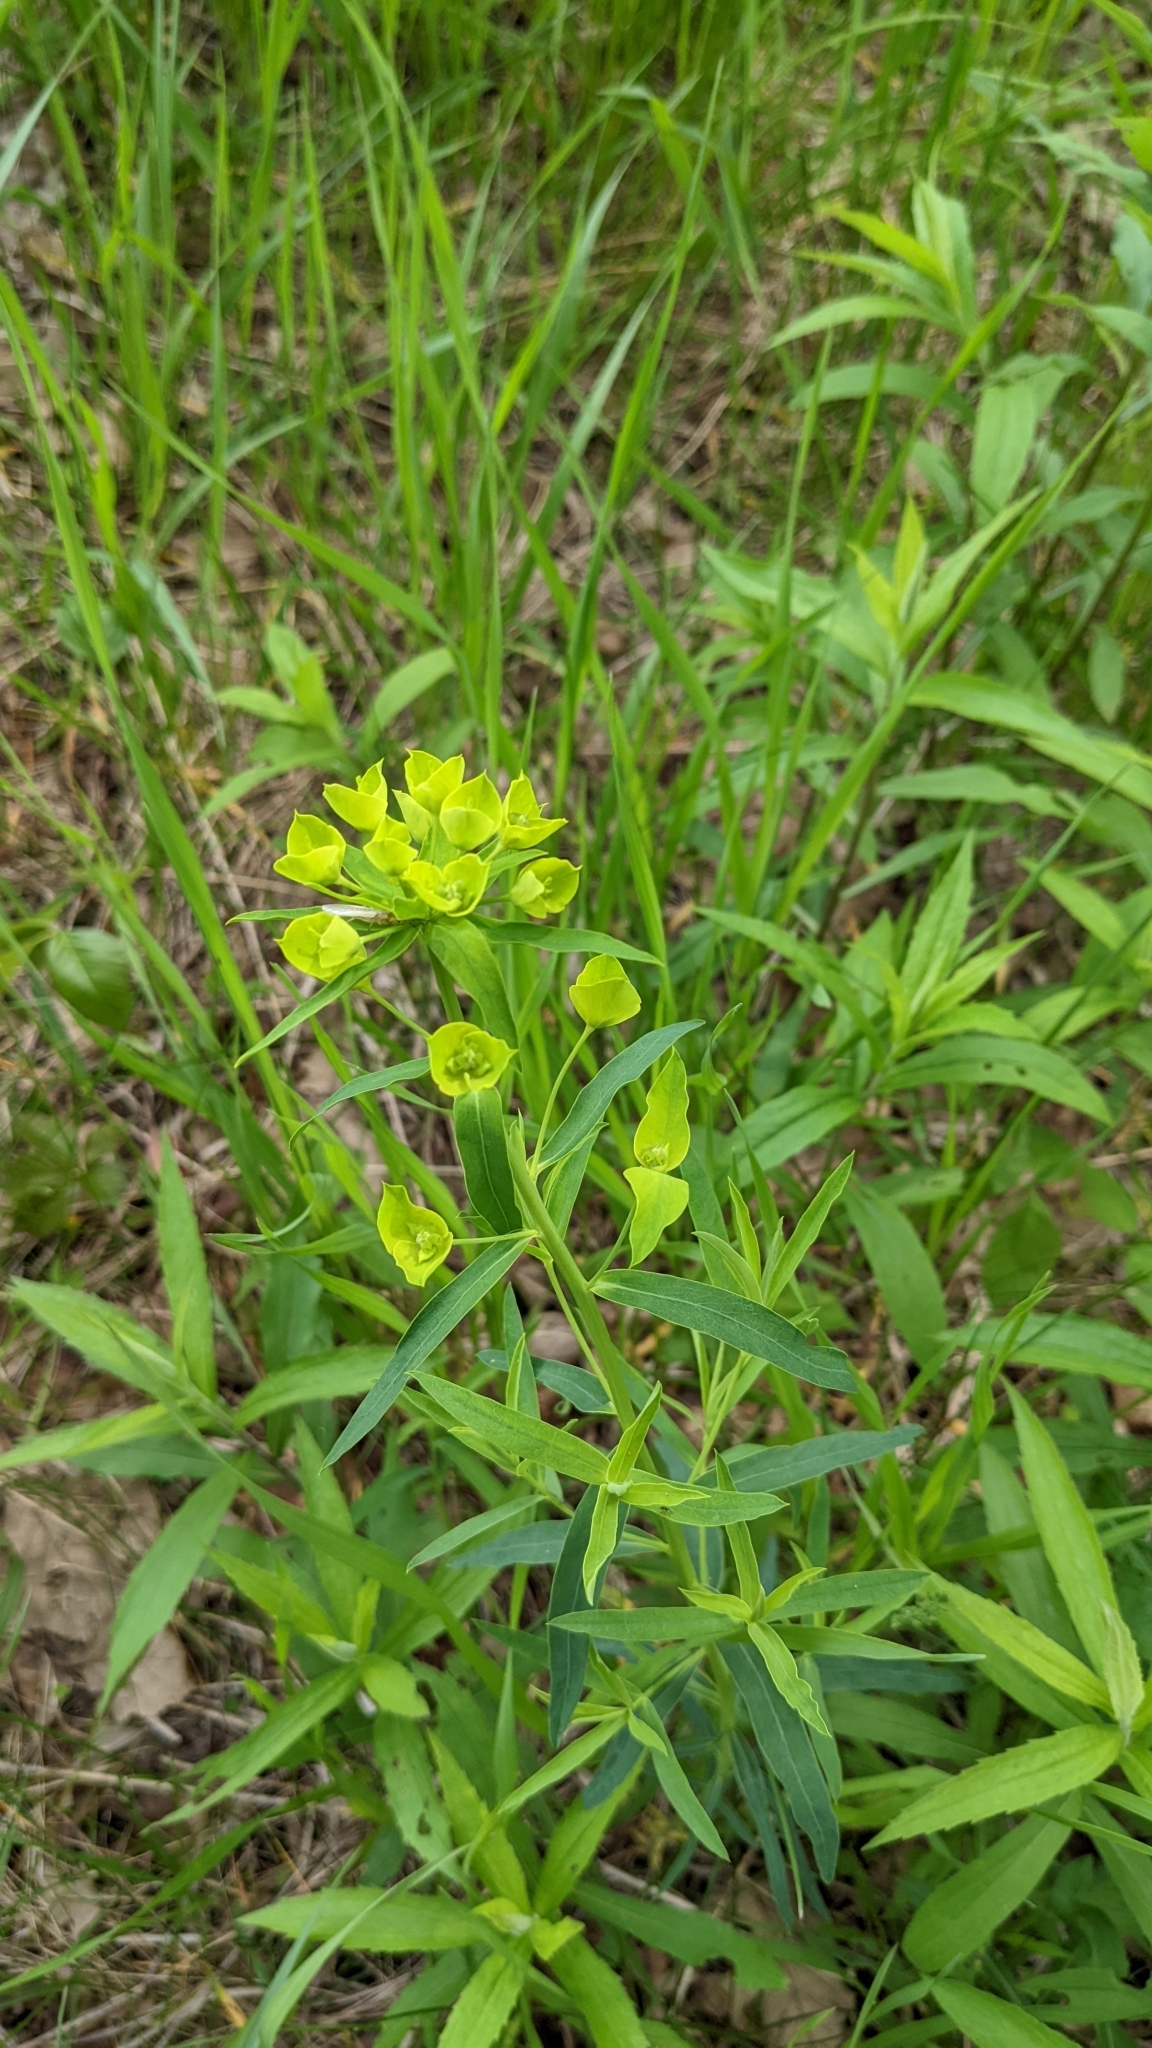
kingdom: Plantae
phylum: Tracheophyta
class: Magnoliopsida
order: Malpighiales
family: Euphorbiaceae
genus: Euphorbia
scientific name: Euphorbia virgata
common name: Leafy spurge
